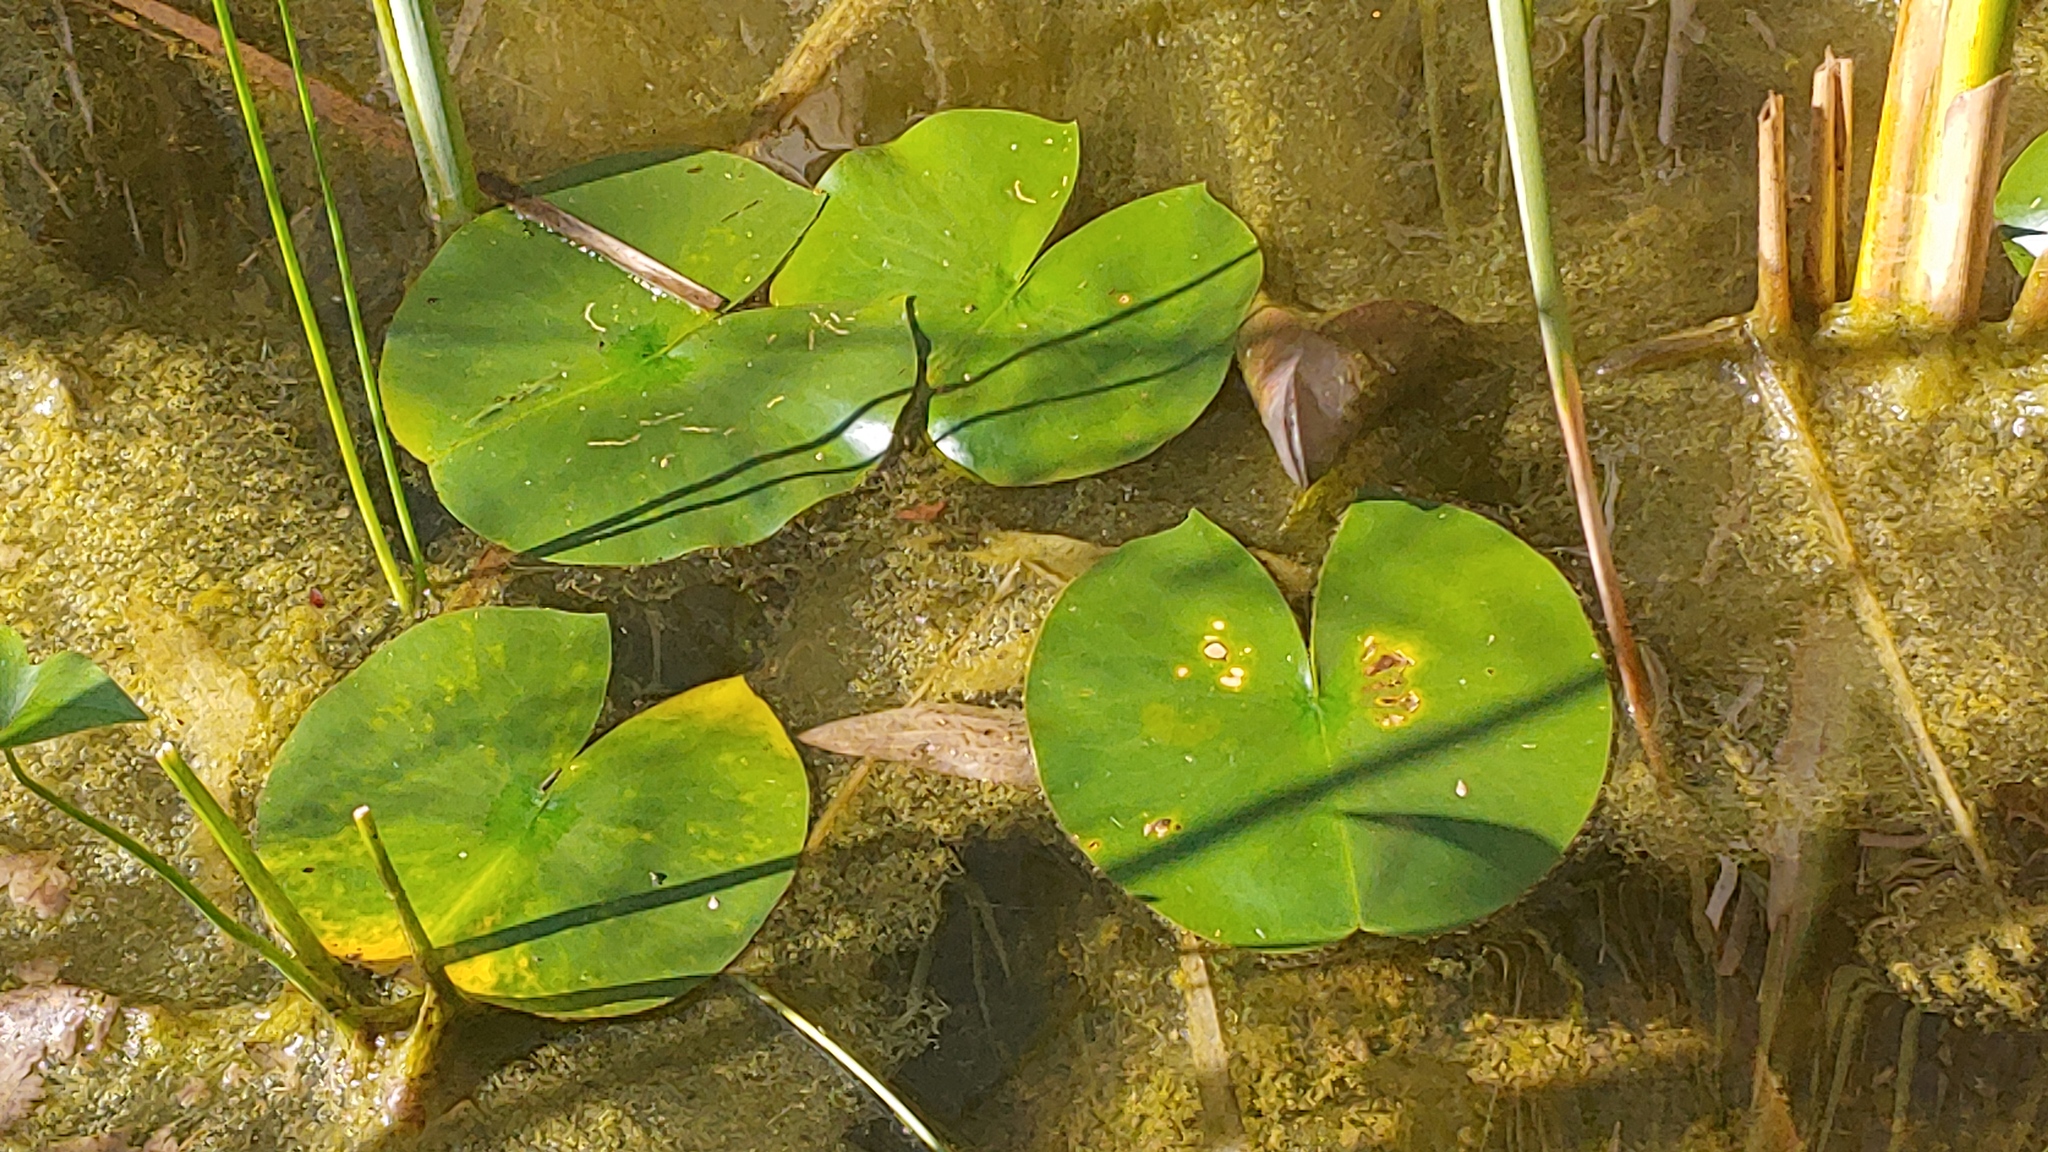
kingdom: Plantae
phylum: Tracheophyta
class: Magnoliopsida
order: Nymphaeales
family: Nymphaeaceae
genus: Nymphaea
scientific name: Nymphaea odorata
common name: Fragrant water-lily
